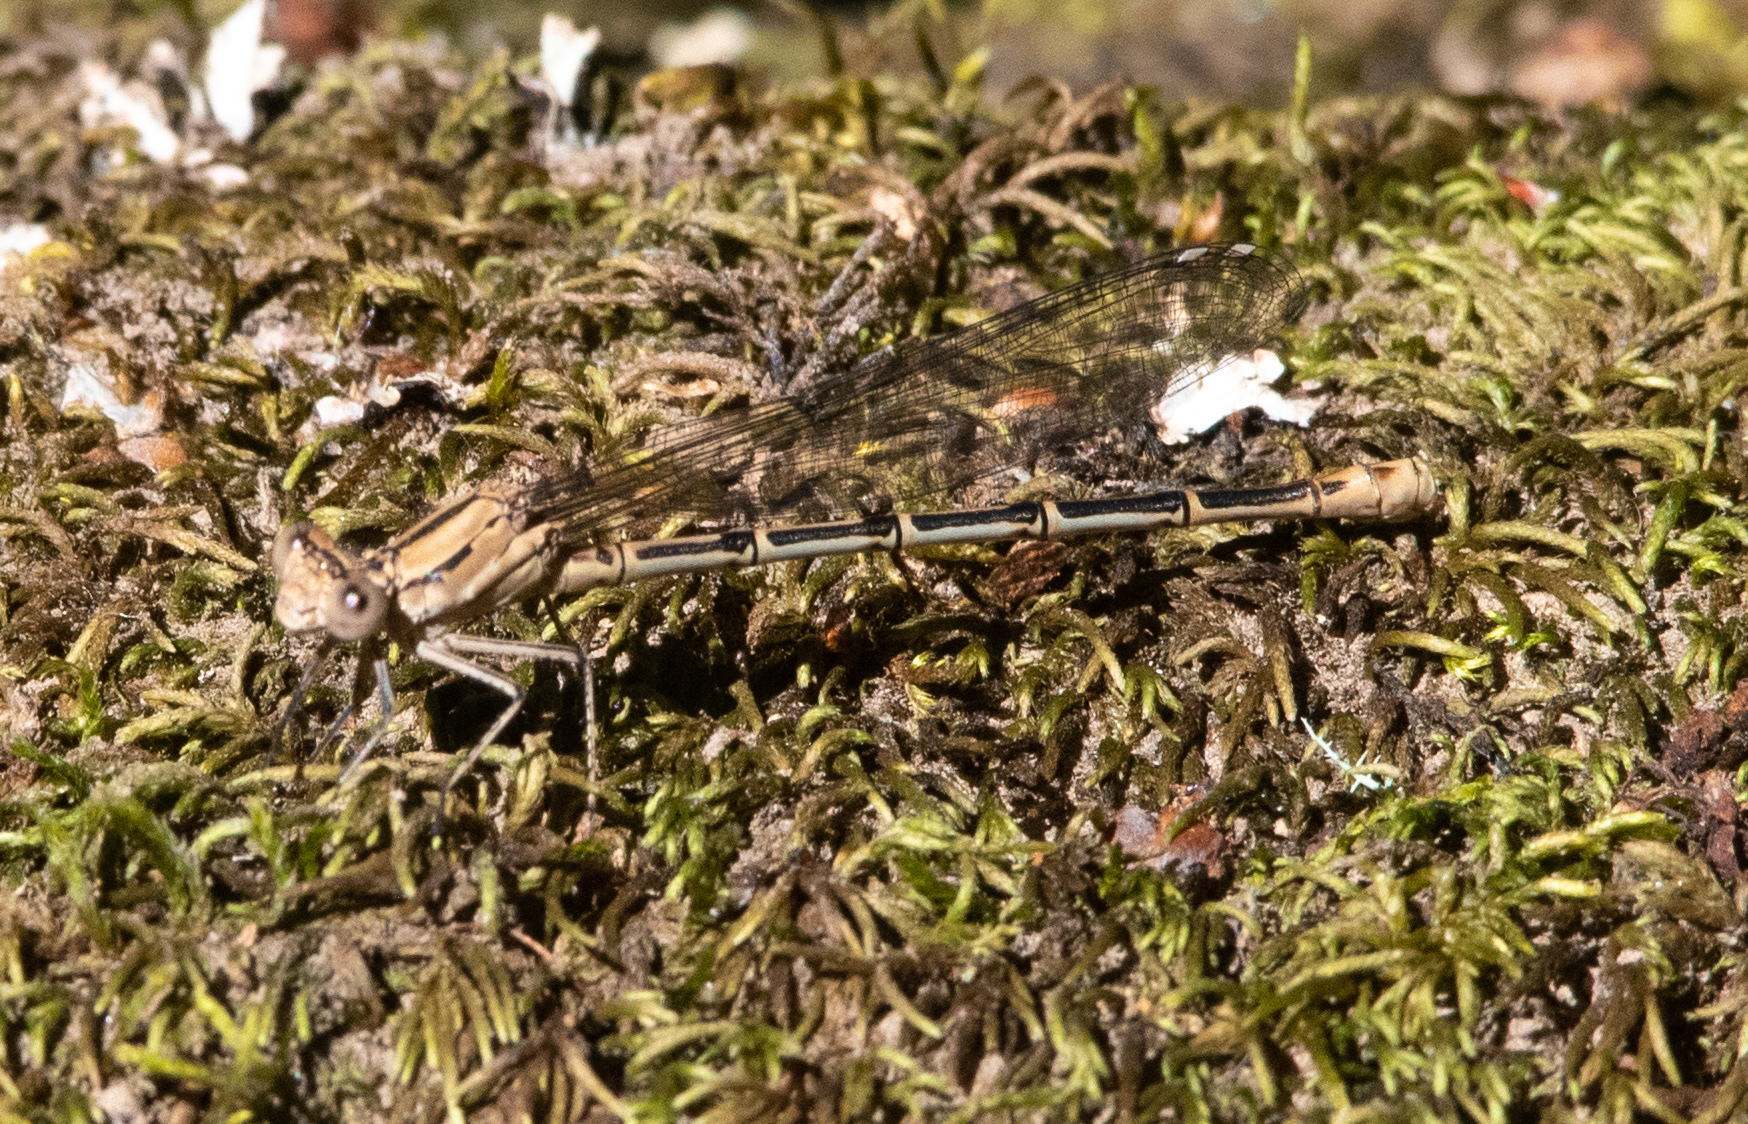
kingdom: Animalia
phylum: Arthropoda
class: Insecta
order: Odonata
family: Coenagrionidae
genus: Argia
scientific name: Argia emma
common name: Emma's dancer
